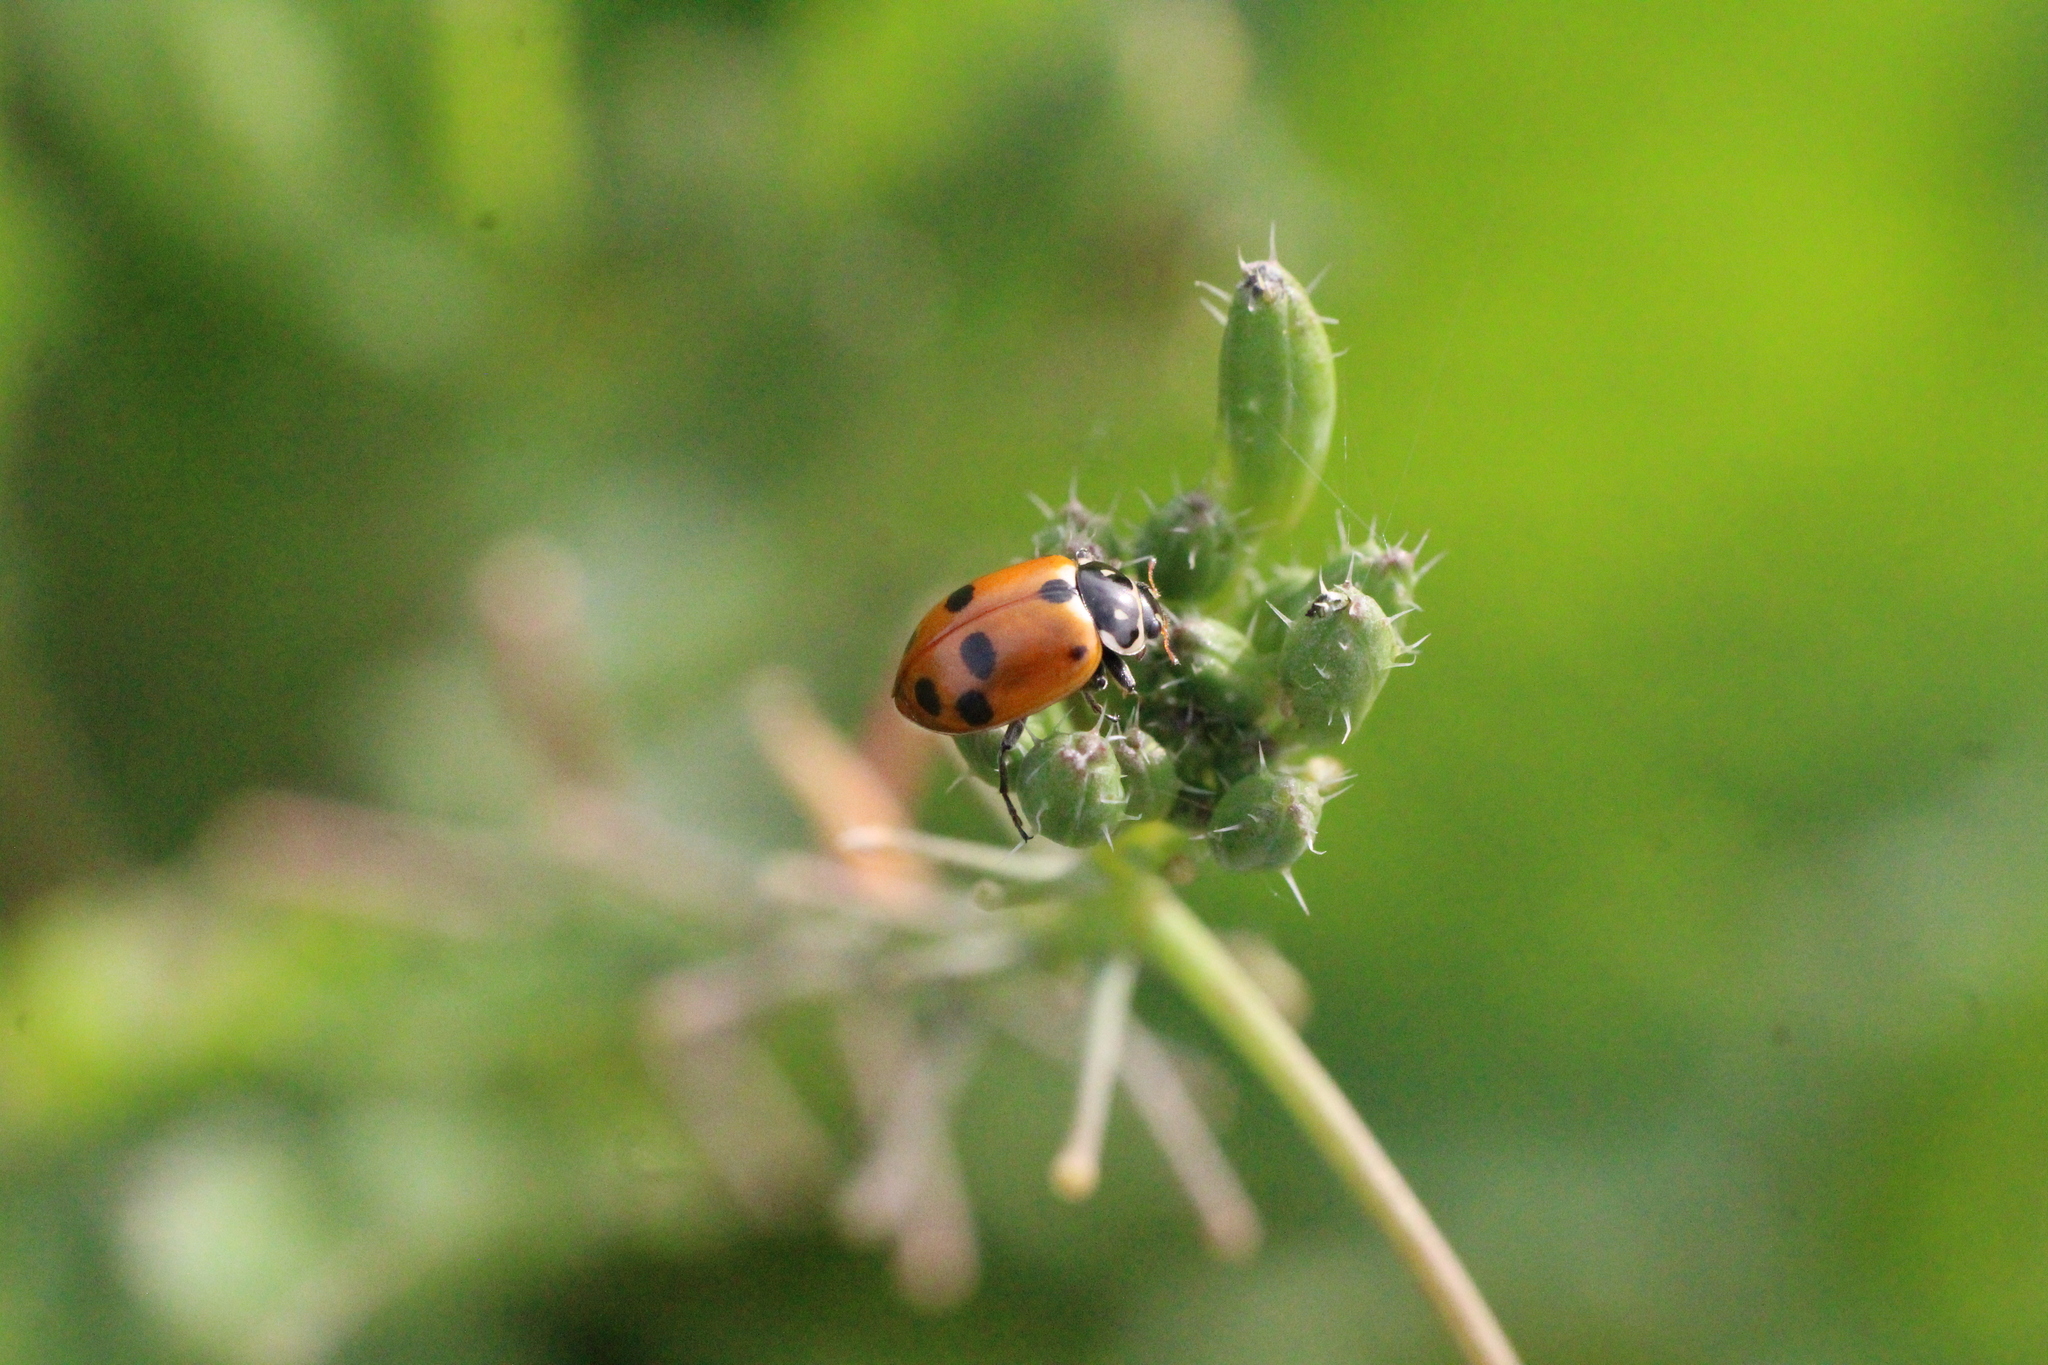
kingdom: Animalia
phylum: Arthropoda
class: Insecta
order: Coleoptera
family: Coccinellidae
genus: Hippodamia
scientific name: Hippodamia variegata
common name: Ladybird beetle
